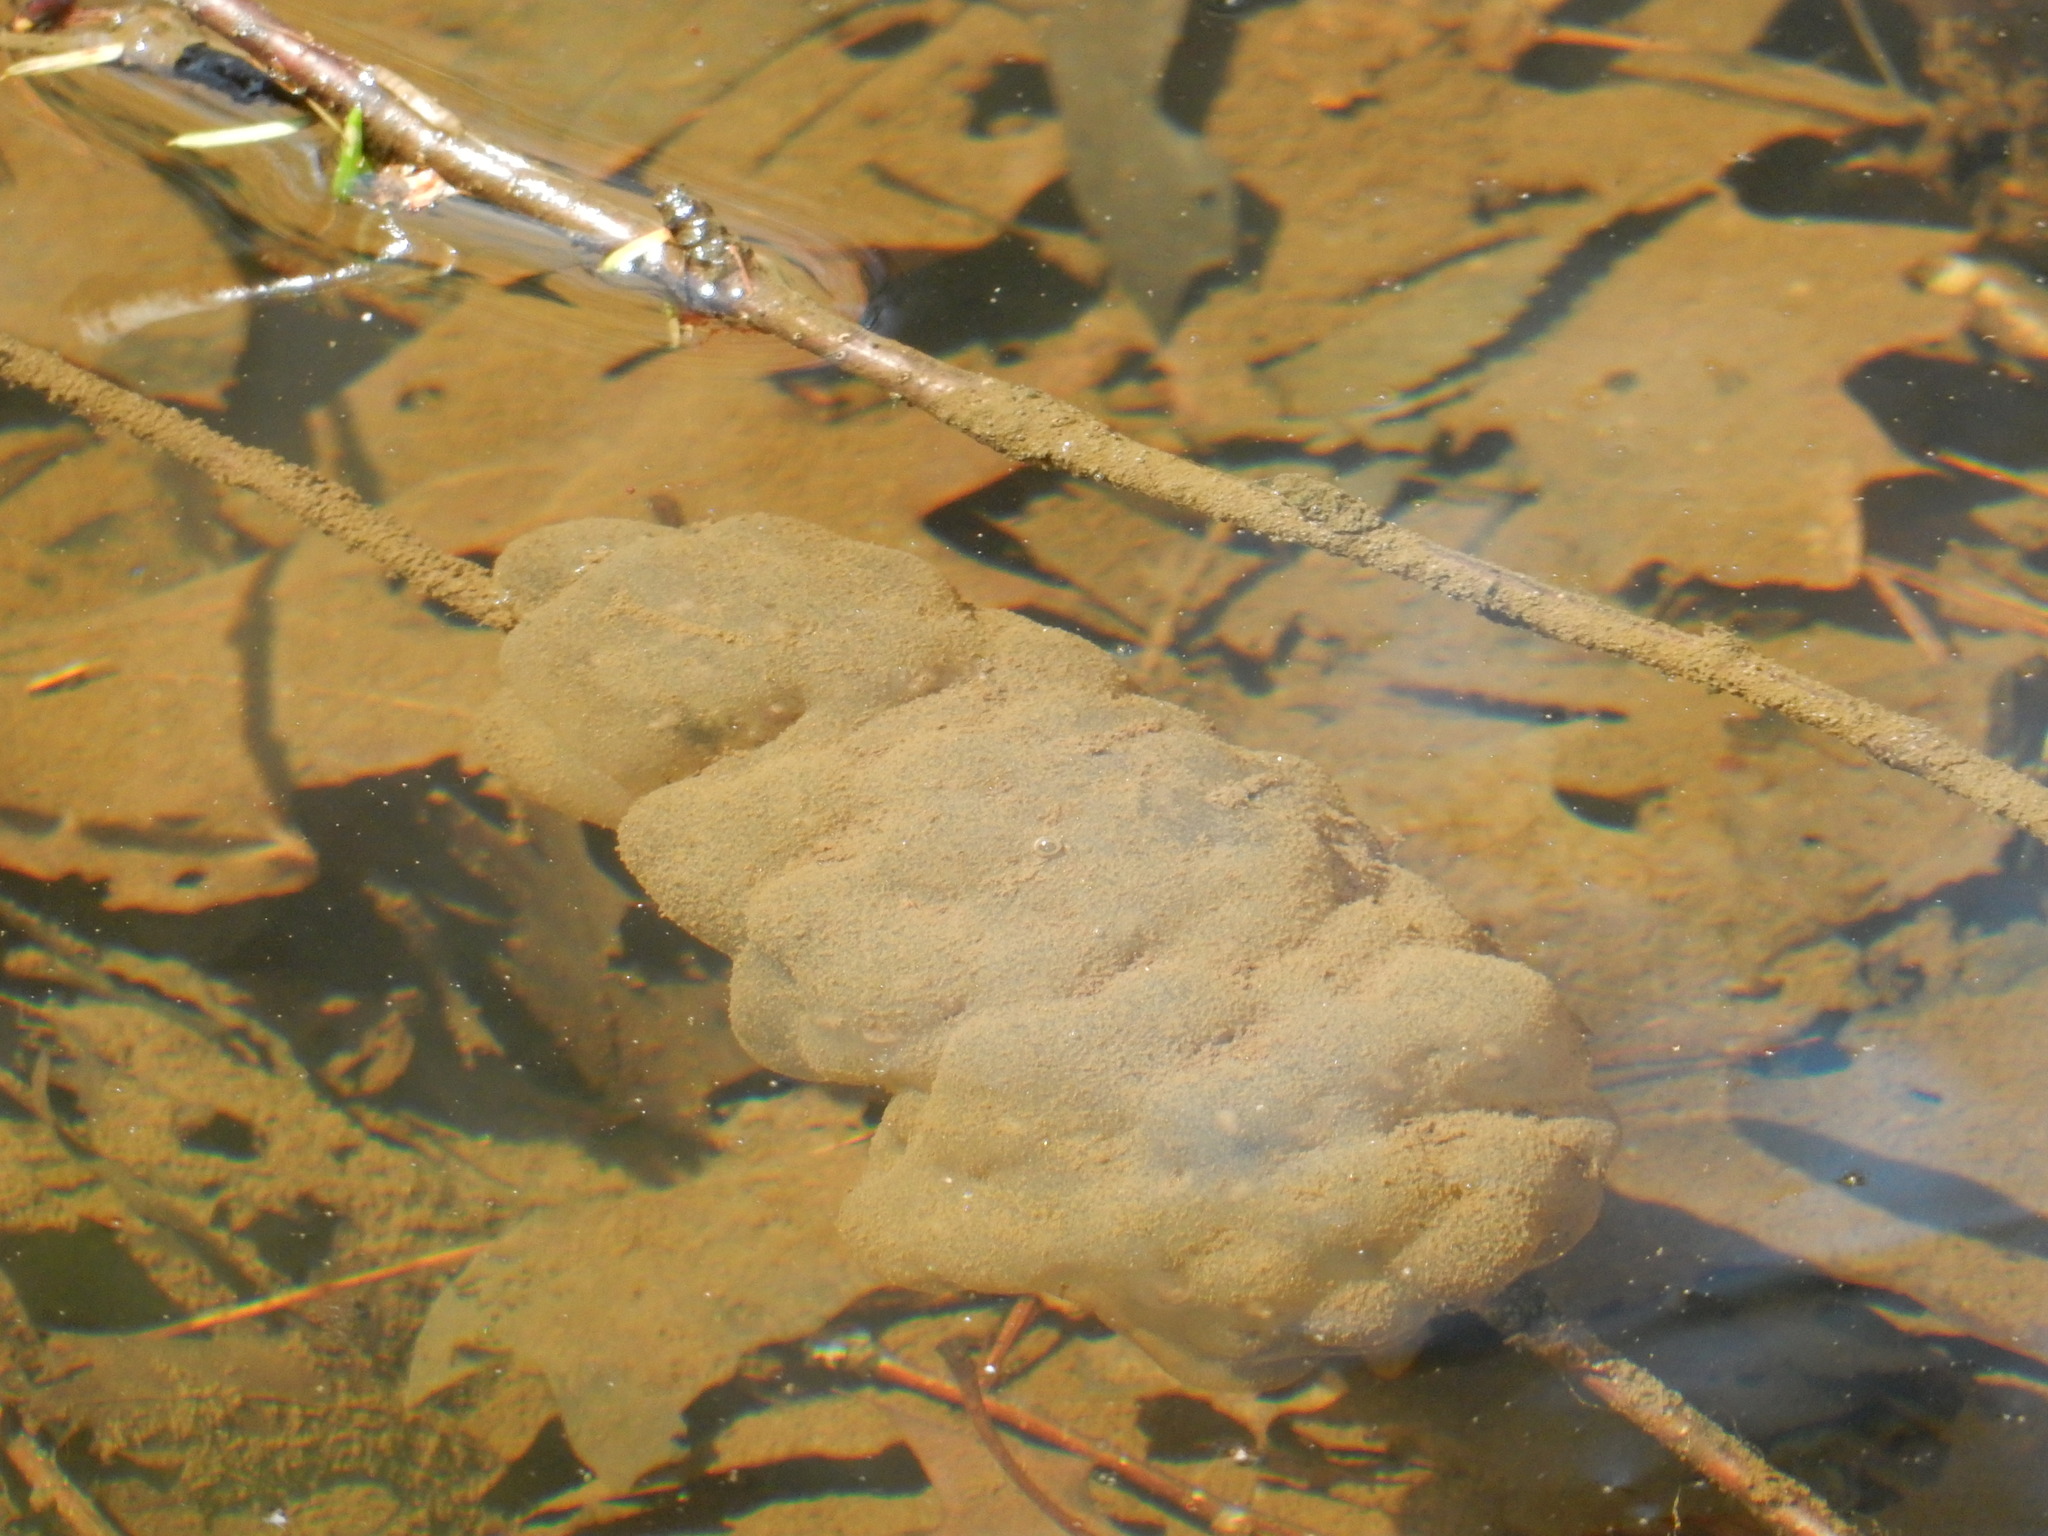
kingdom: Animalia
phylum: Chordata
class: Amphibia
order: Caudata
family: Ambystomatidae
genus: Ambystoma
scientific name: Ambystoma maculatum
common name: Spotted salamander
